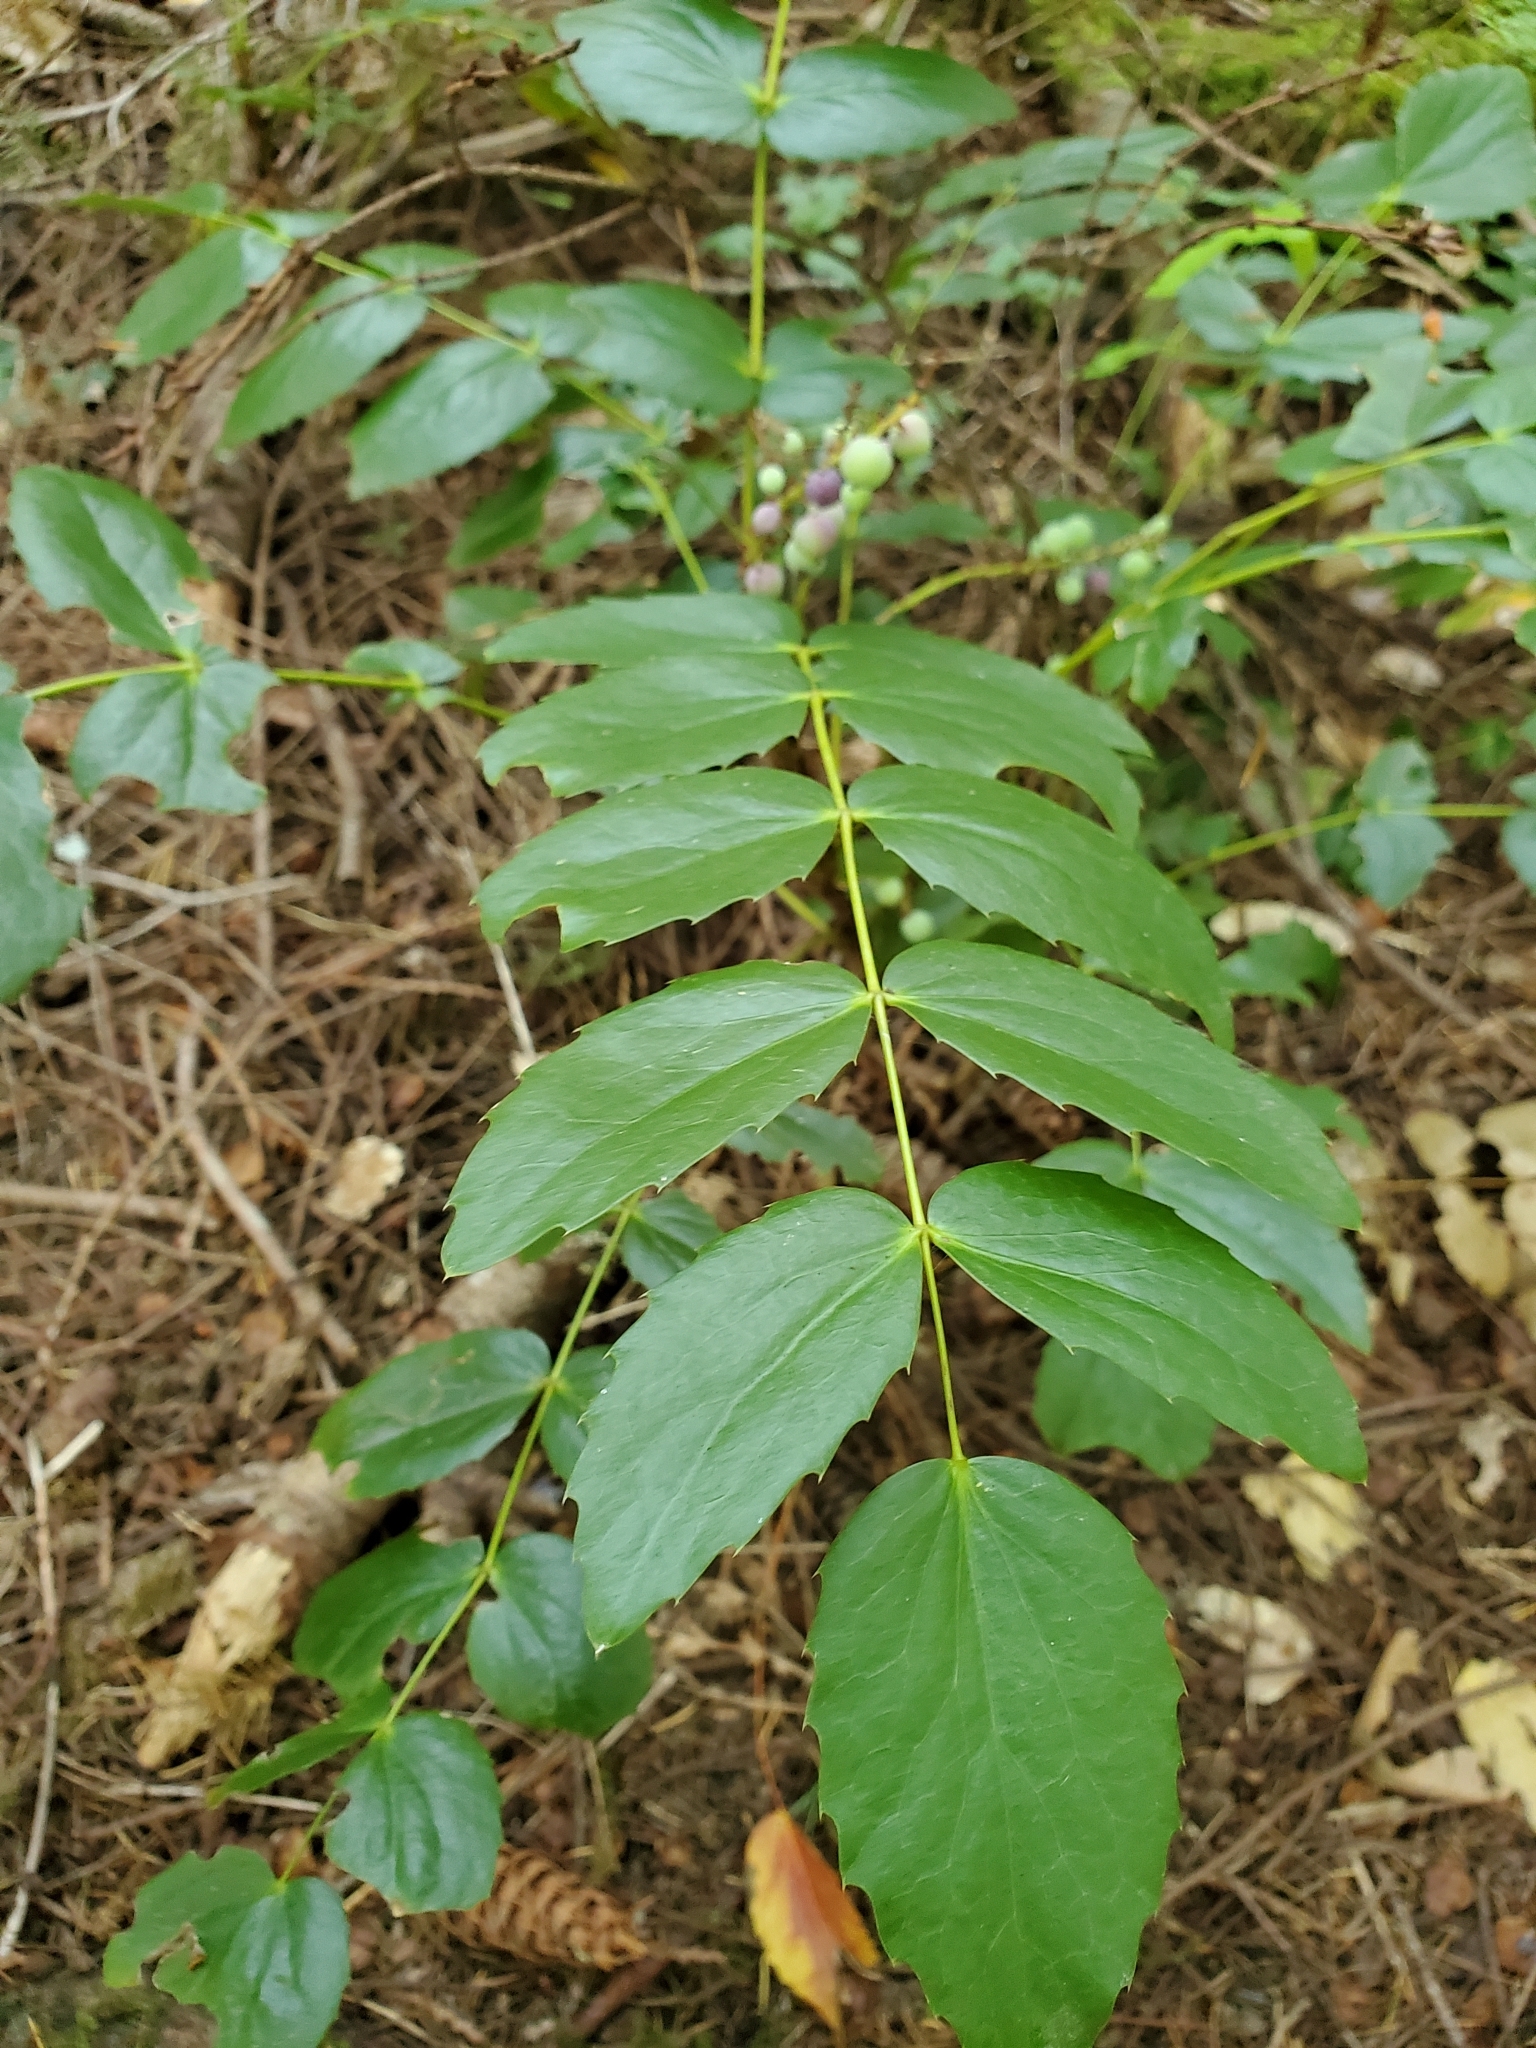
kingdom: Plantae
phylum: Tracheophyta
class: Magnoliopsida
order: Ranunculales
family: Berberidaceae
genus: Mahonia
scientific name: Mahonia nervosa
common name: Cascade oregon-grape
